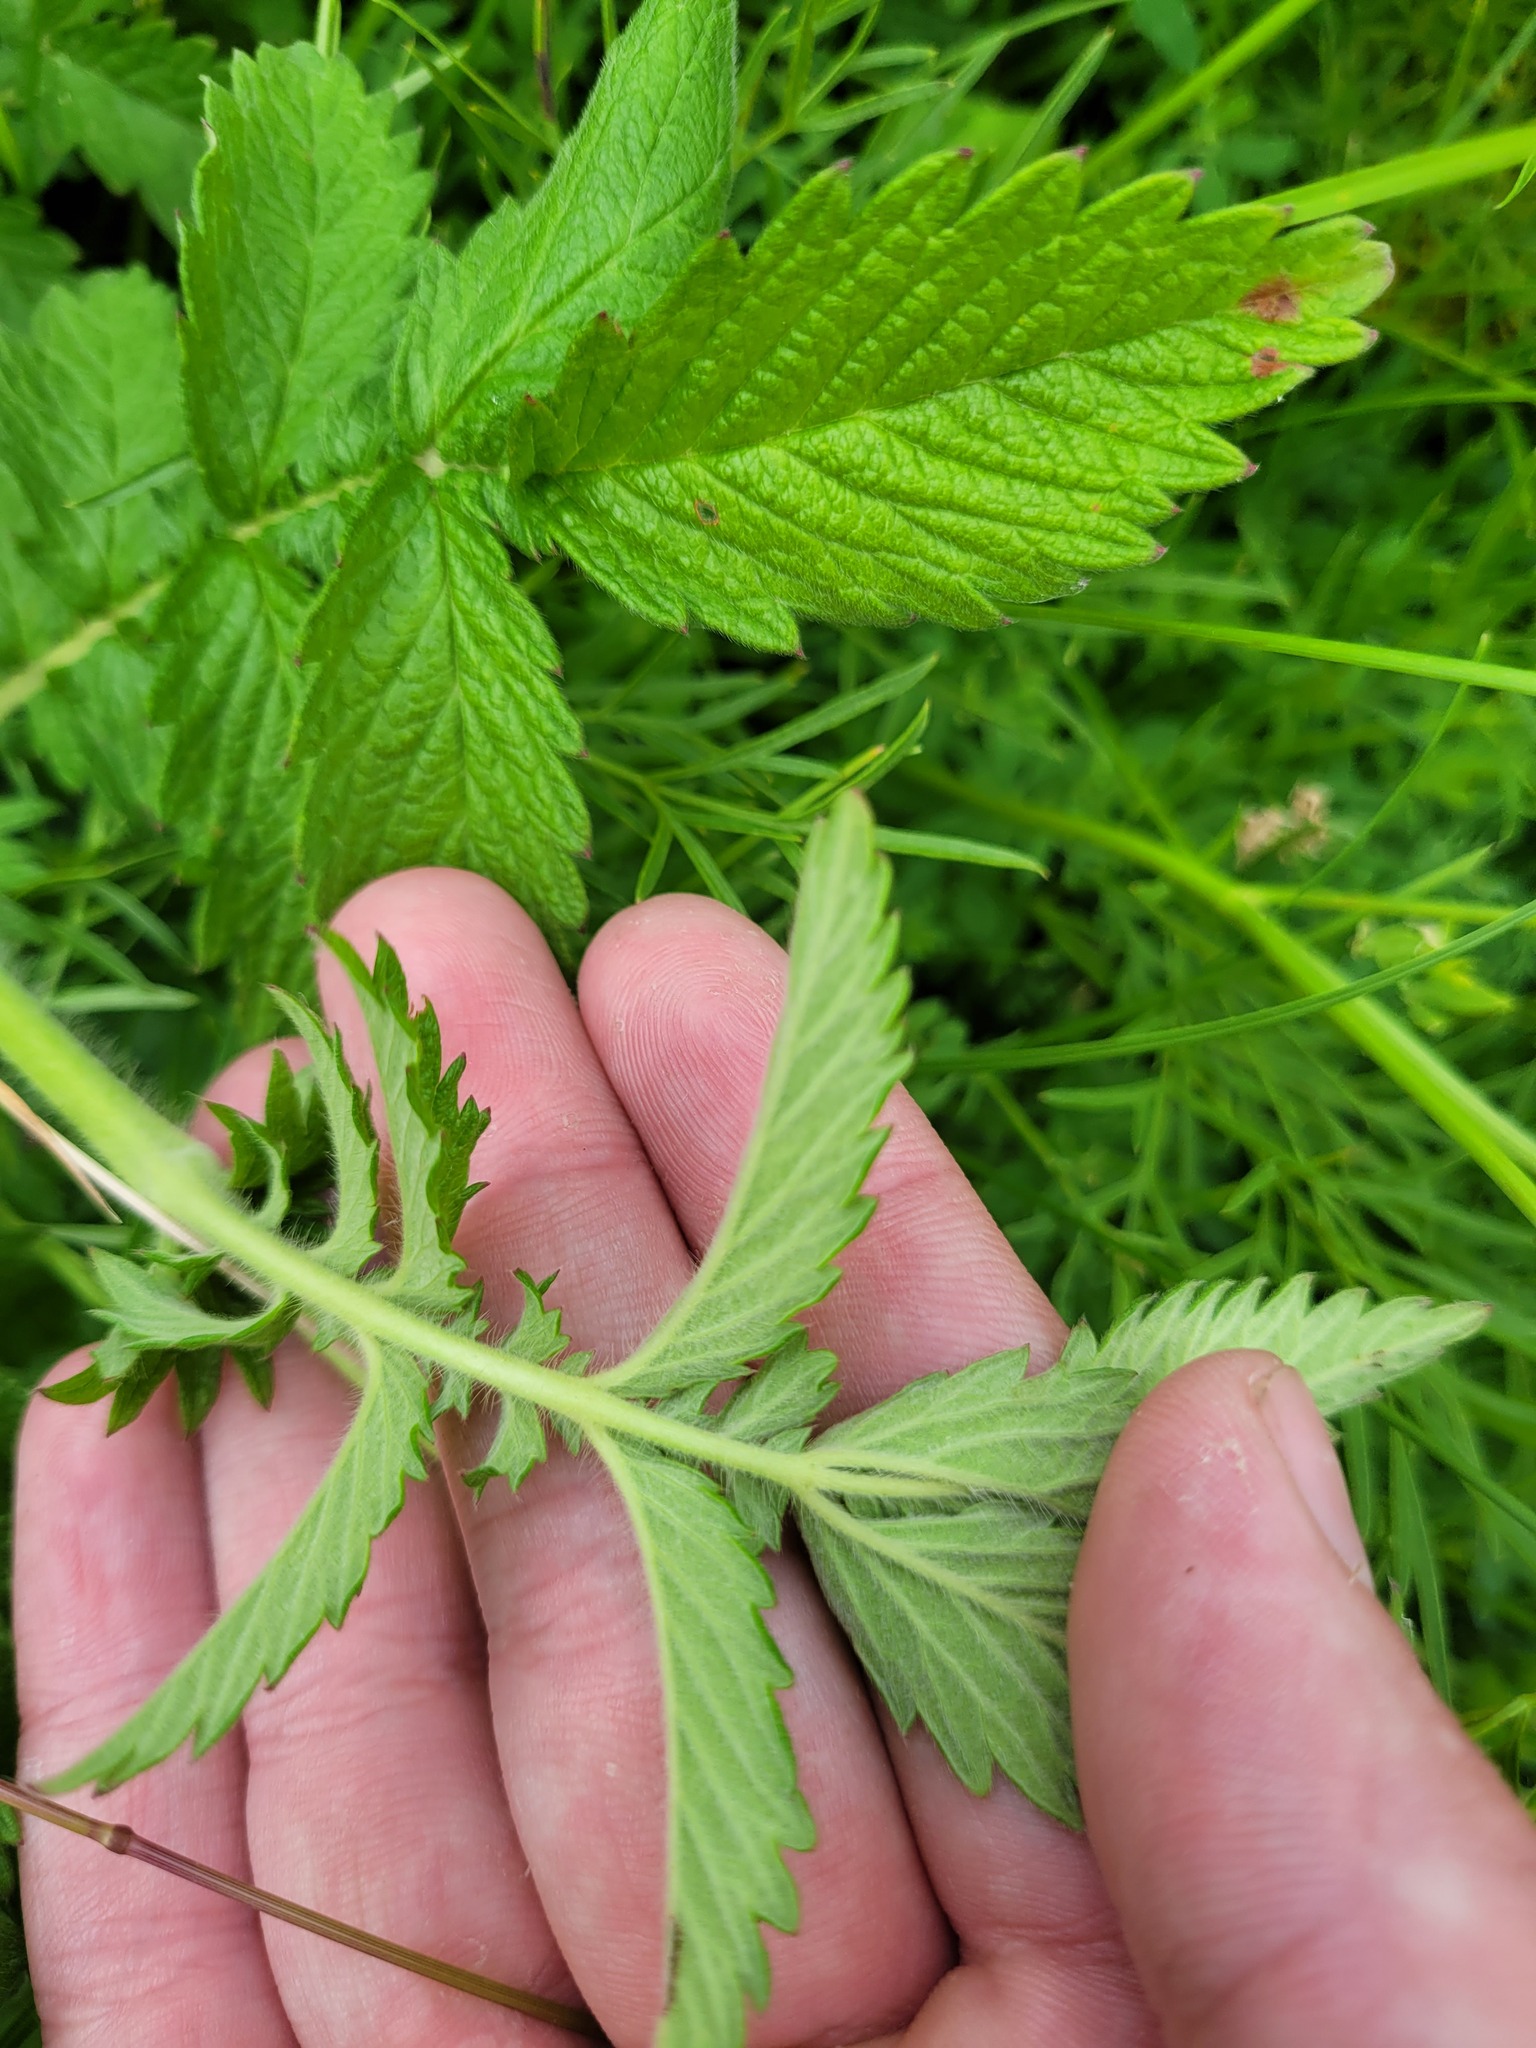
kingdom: Plantae
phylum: Tracheophyta
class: Magnoliopsida
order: Rosales
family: Rosaceae
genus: Agrimonia
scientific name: Agrimonia eupatoria
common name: Agrimony
